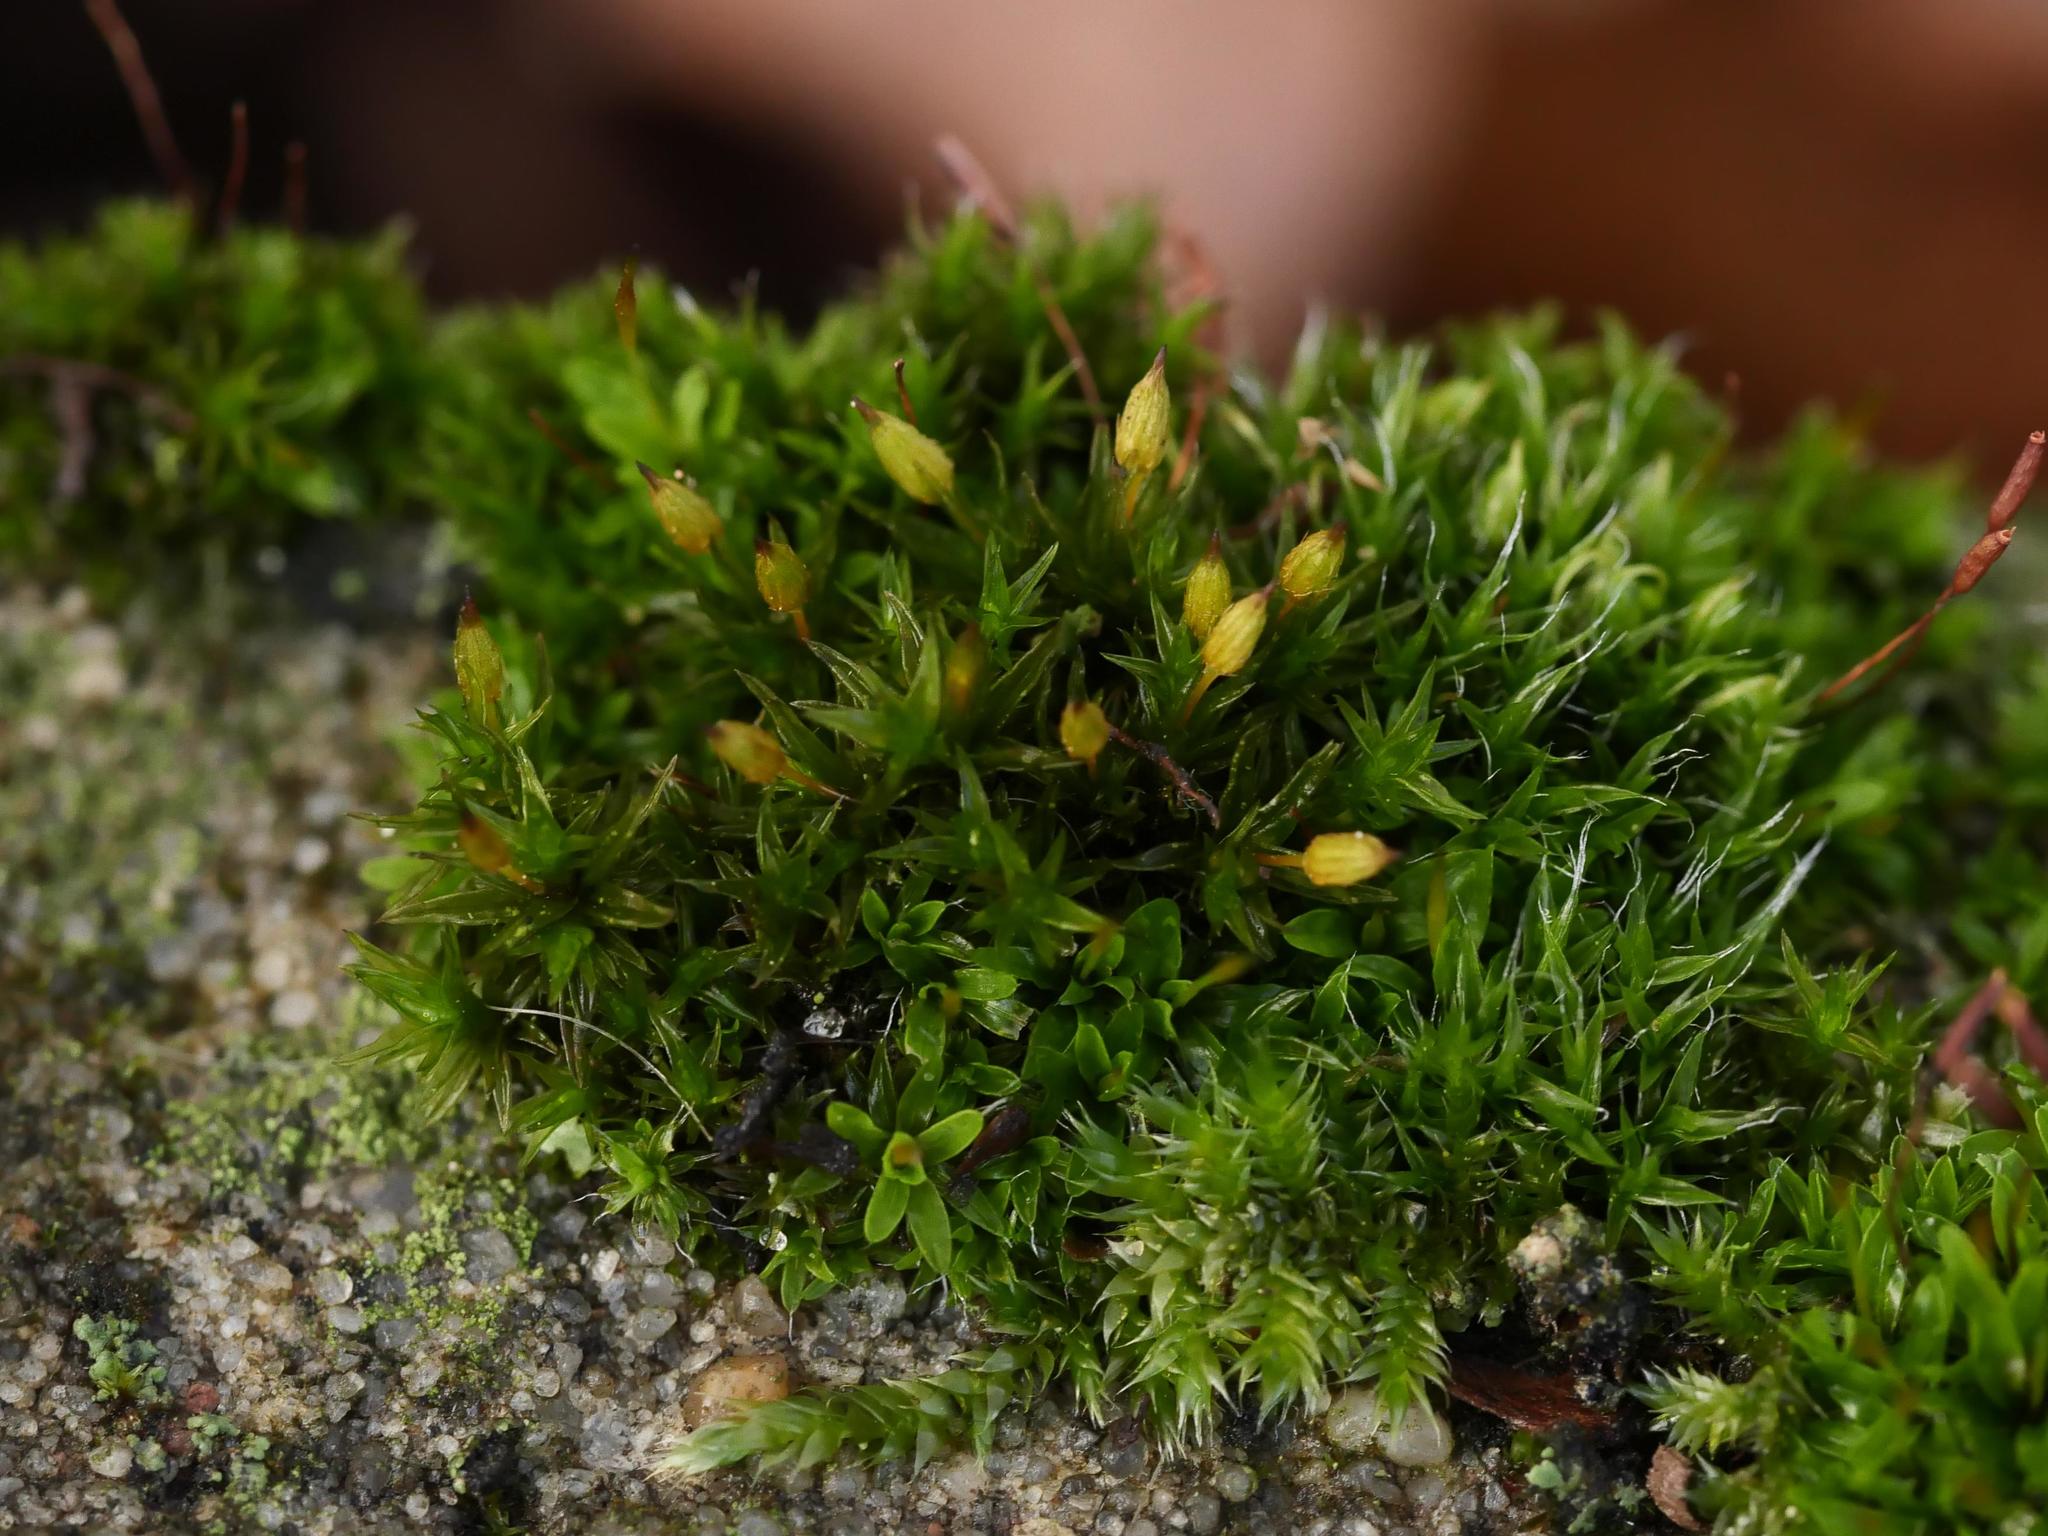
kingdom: Plantae
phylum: Bryophyta
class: Bryopsida
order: Orthotrichales
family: Orthotrichaceae
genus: Orthotrichum
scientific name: Orthotrichum anomalum
